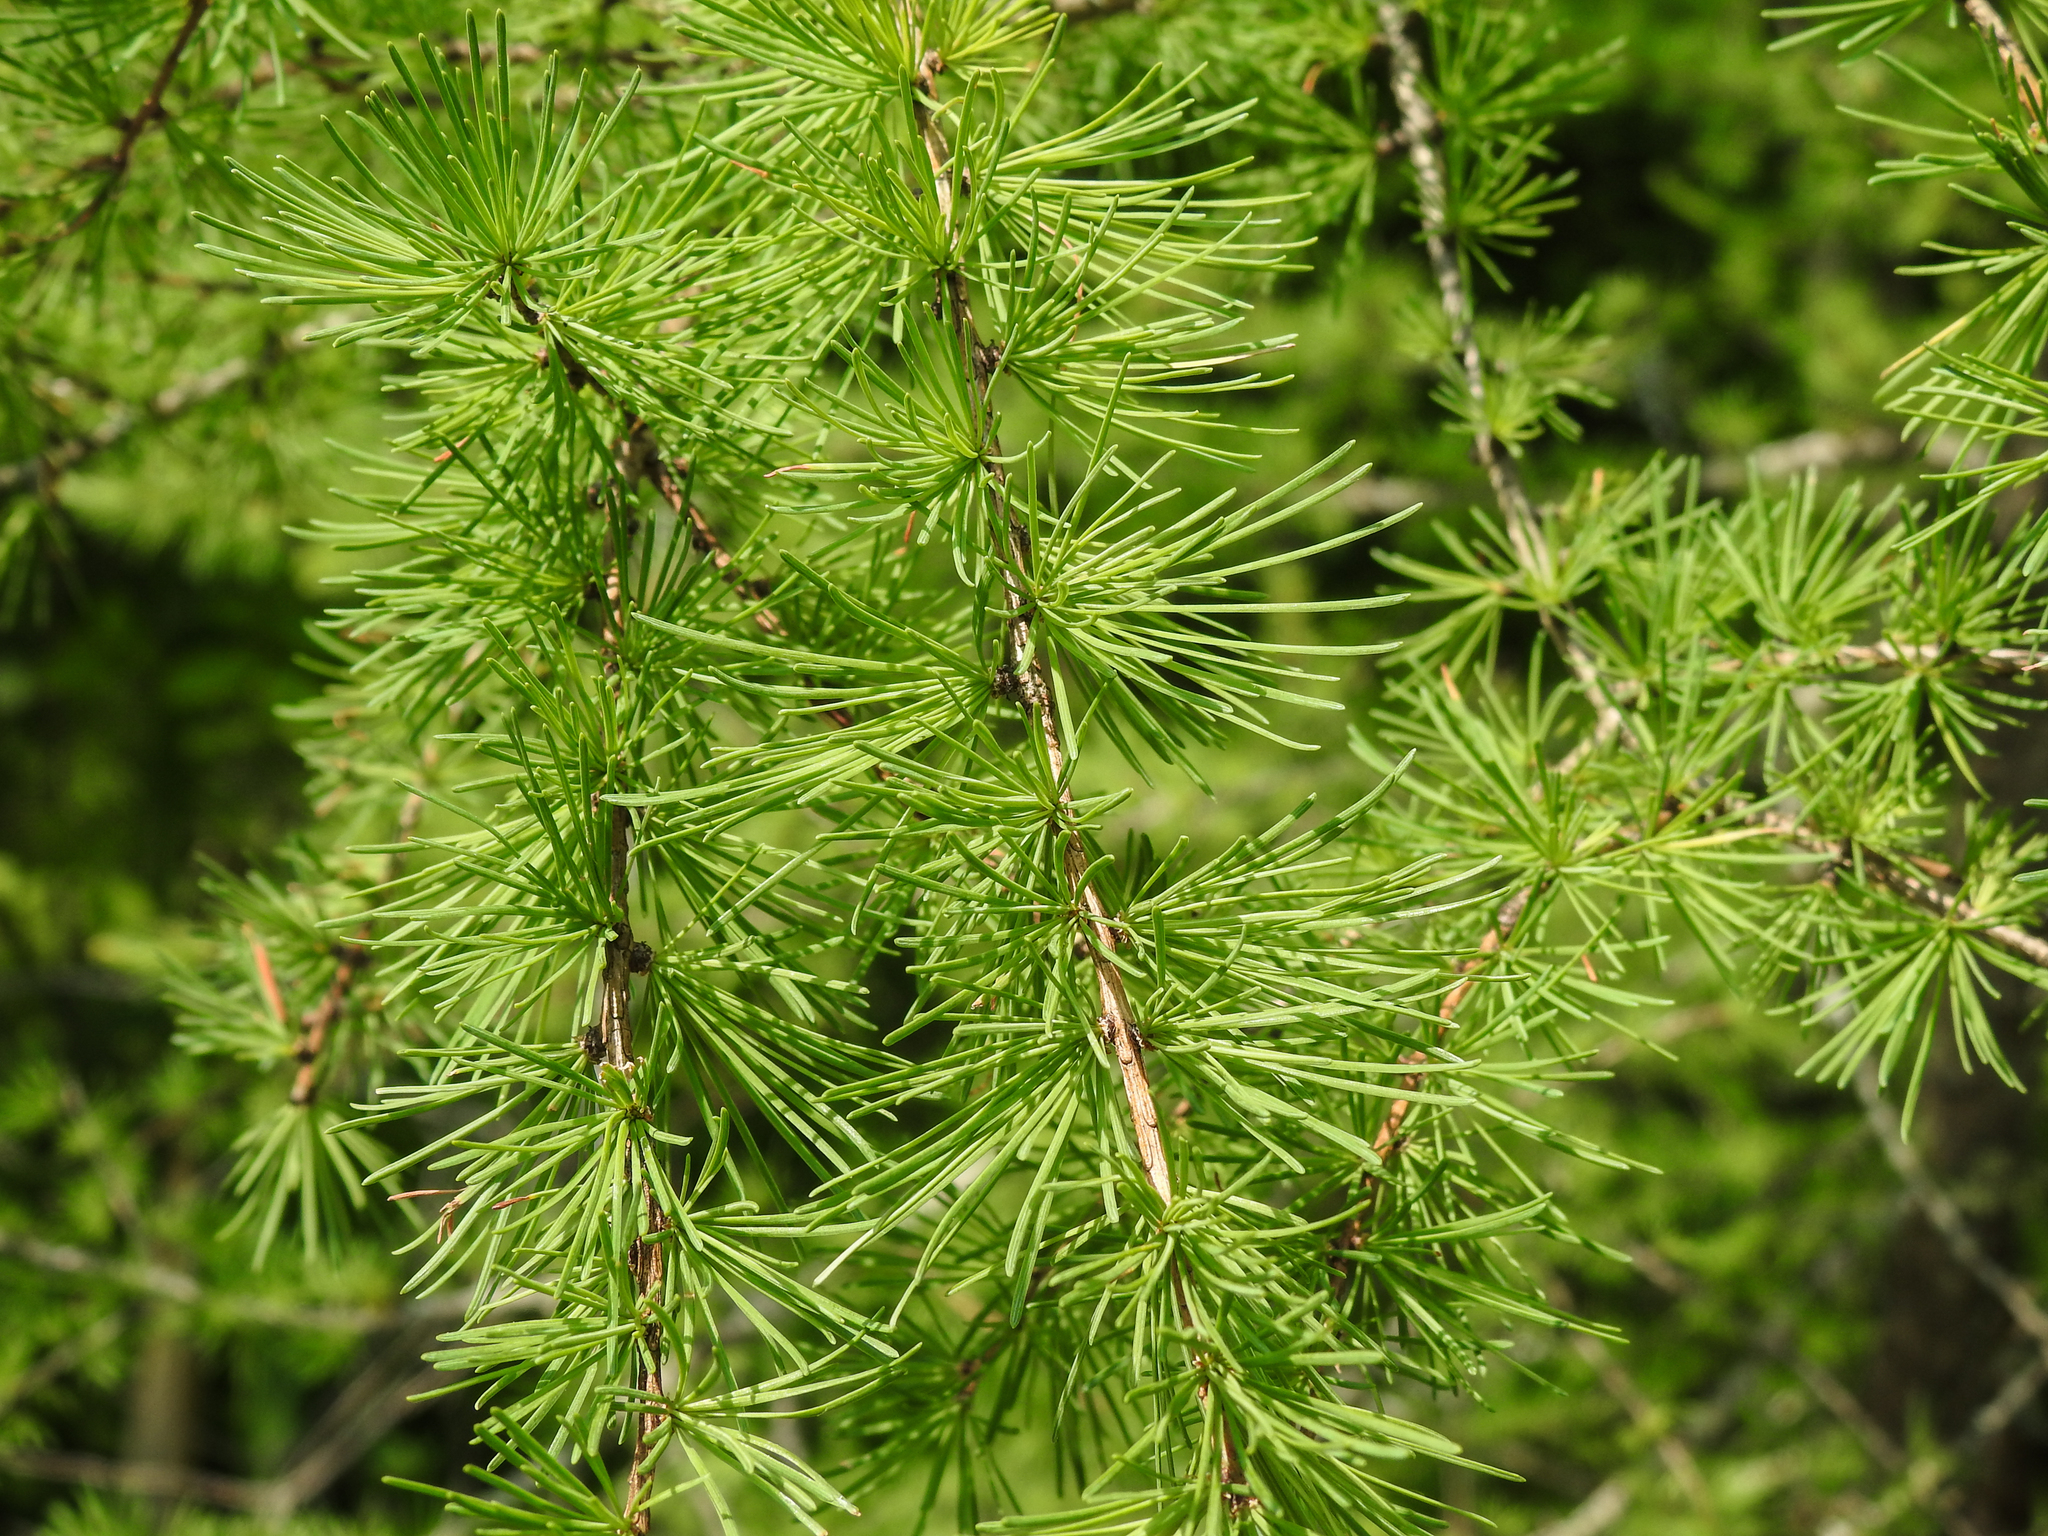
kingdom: Plantae
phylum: Tracheophyta
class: Pinopsida
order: Pinales
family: Pinaceae
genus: Larix
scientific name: Larix laricina
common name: American larch
